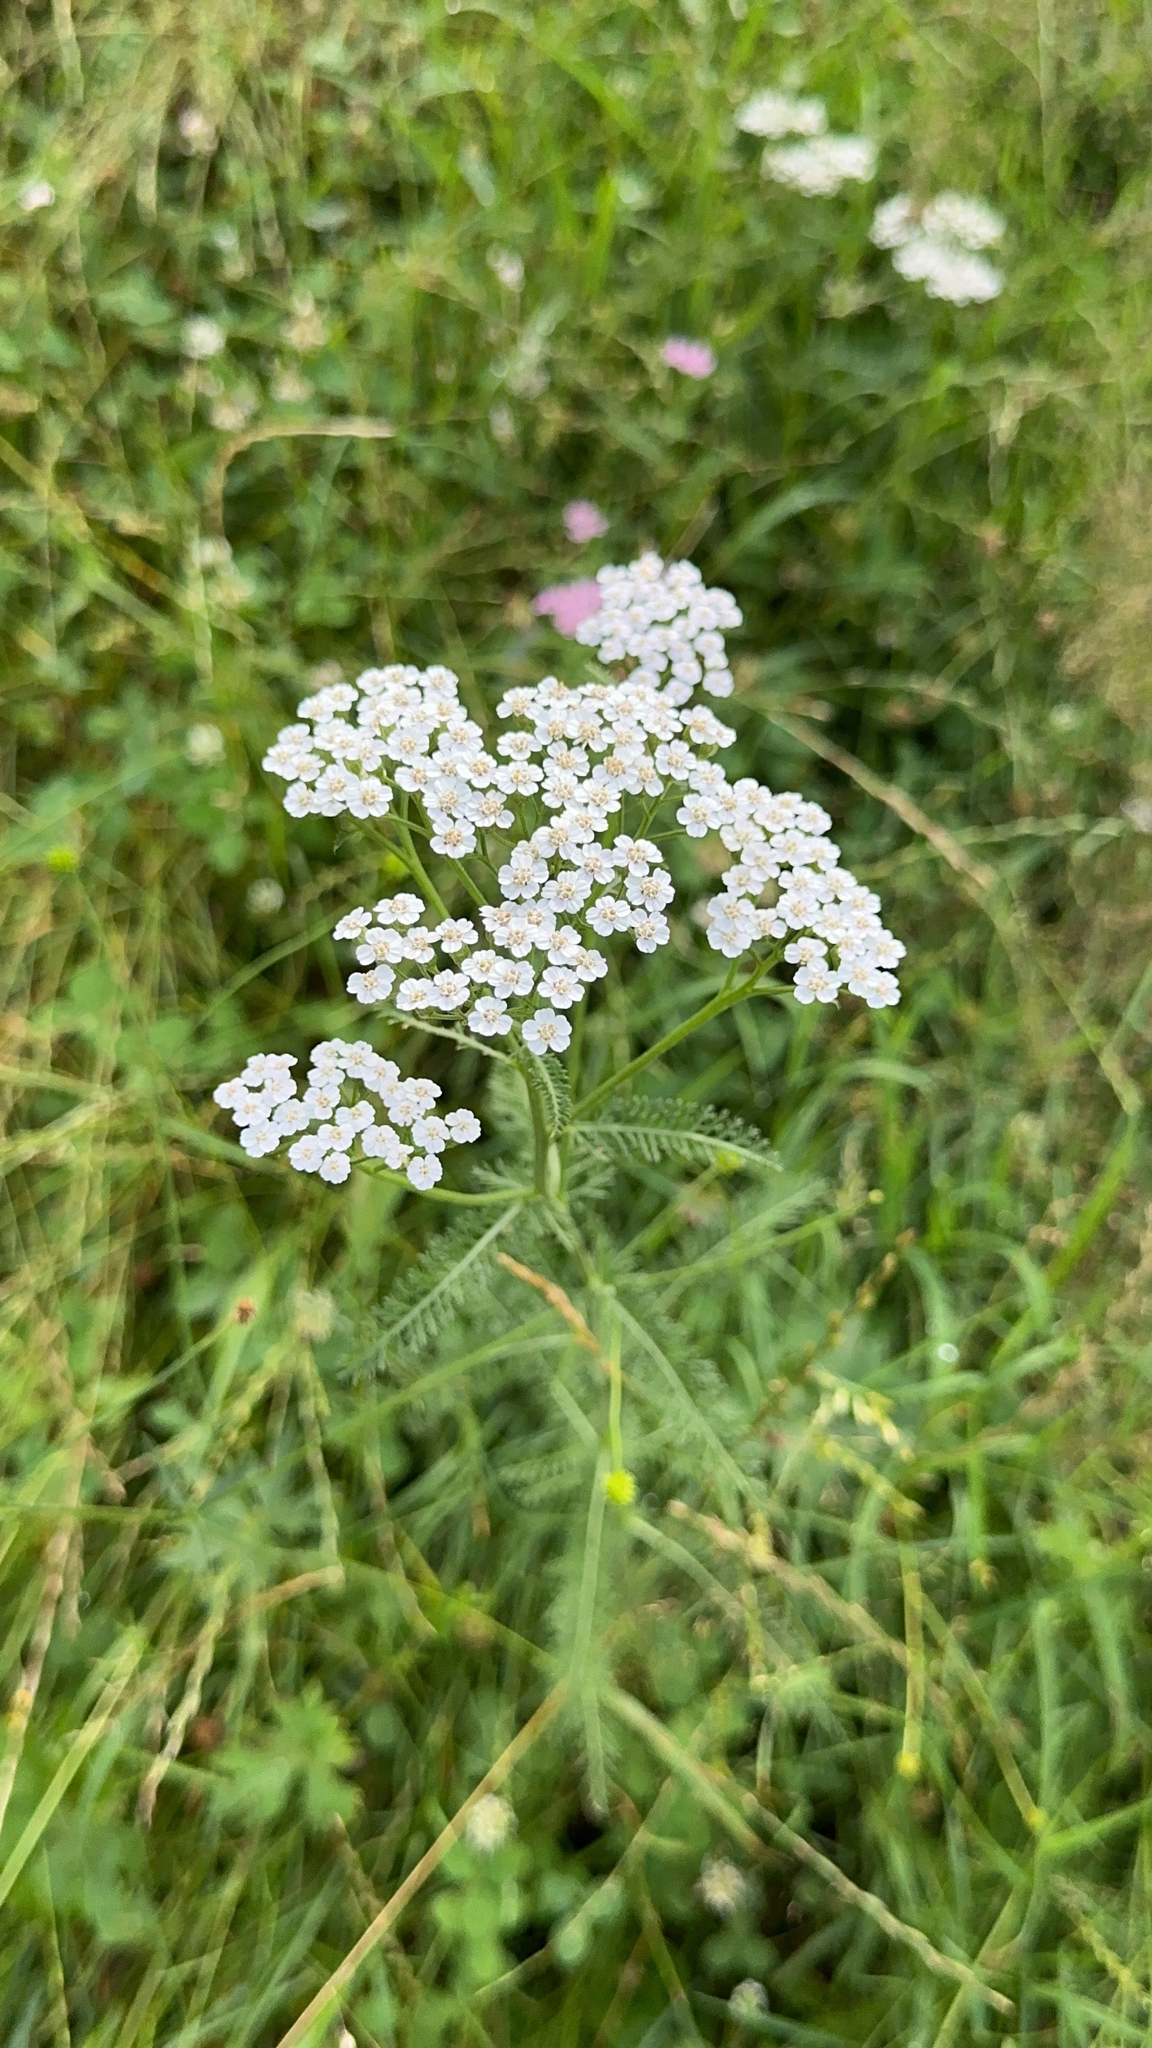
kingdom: Plantae
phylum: Tracheophyta
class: Magnoliopsida
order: Asterales
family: Asteraceae
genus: Achillea
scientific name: Achillea millefolium
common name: Yarrow
